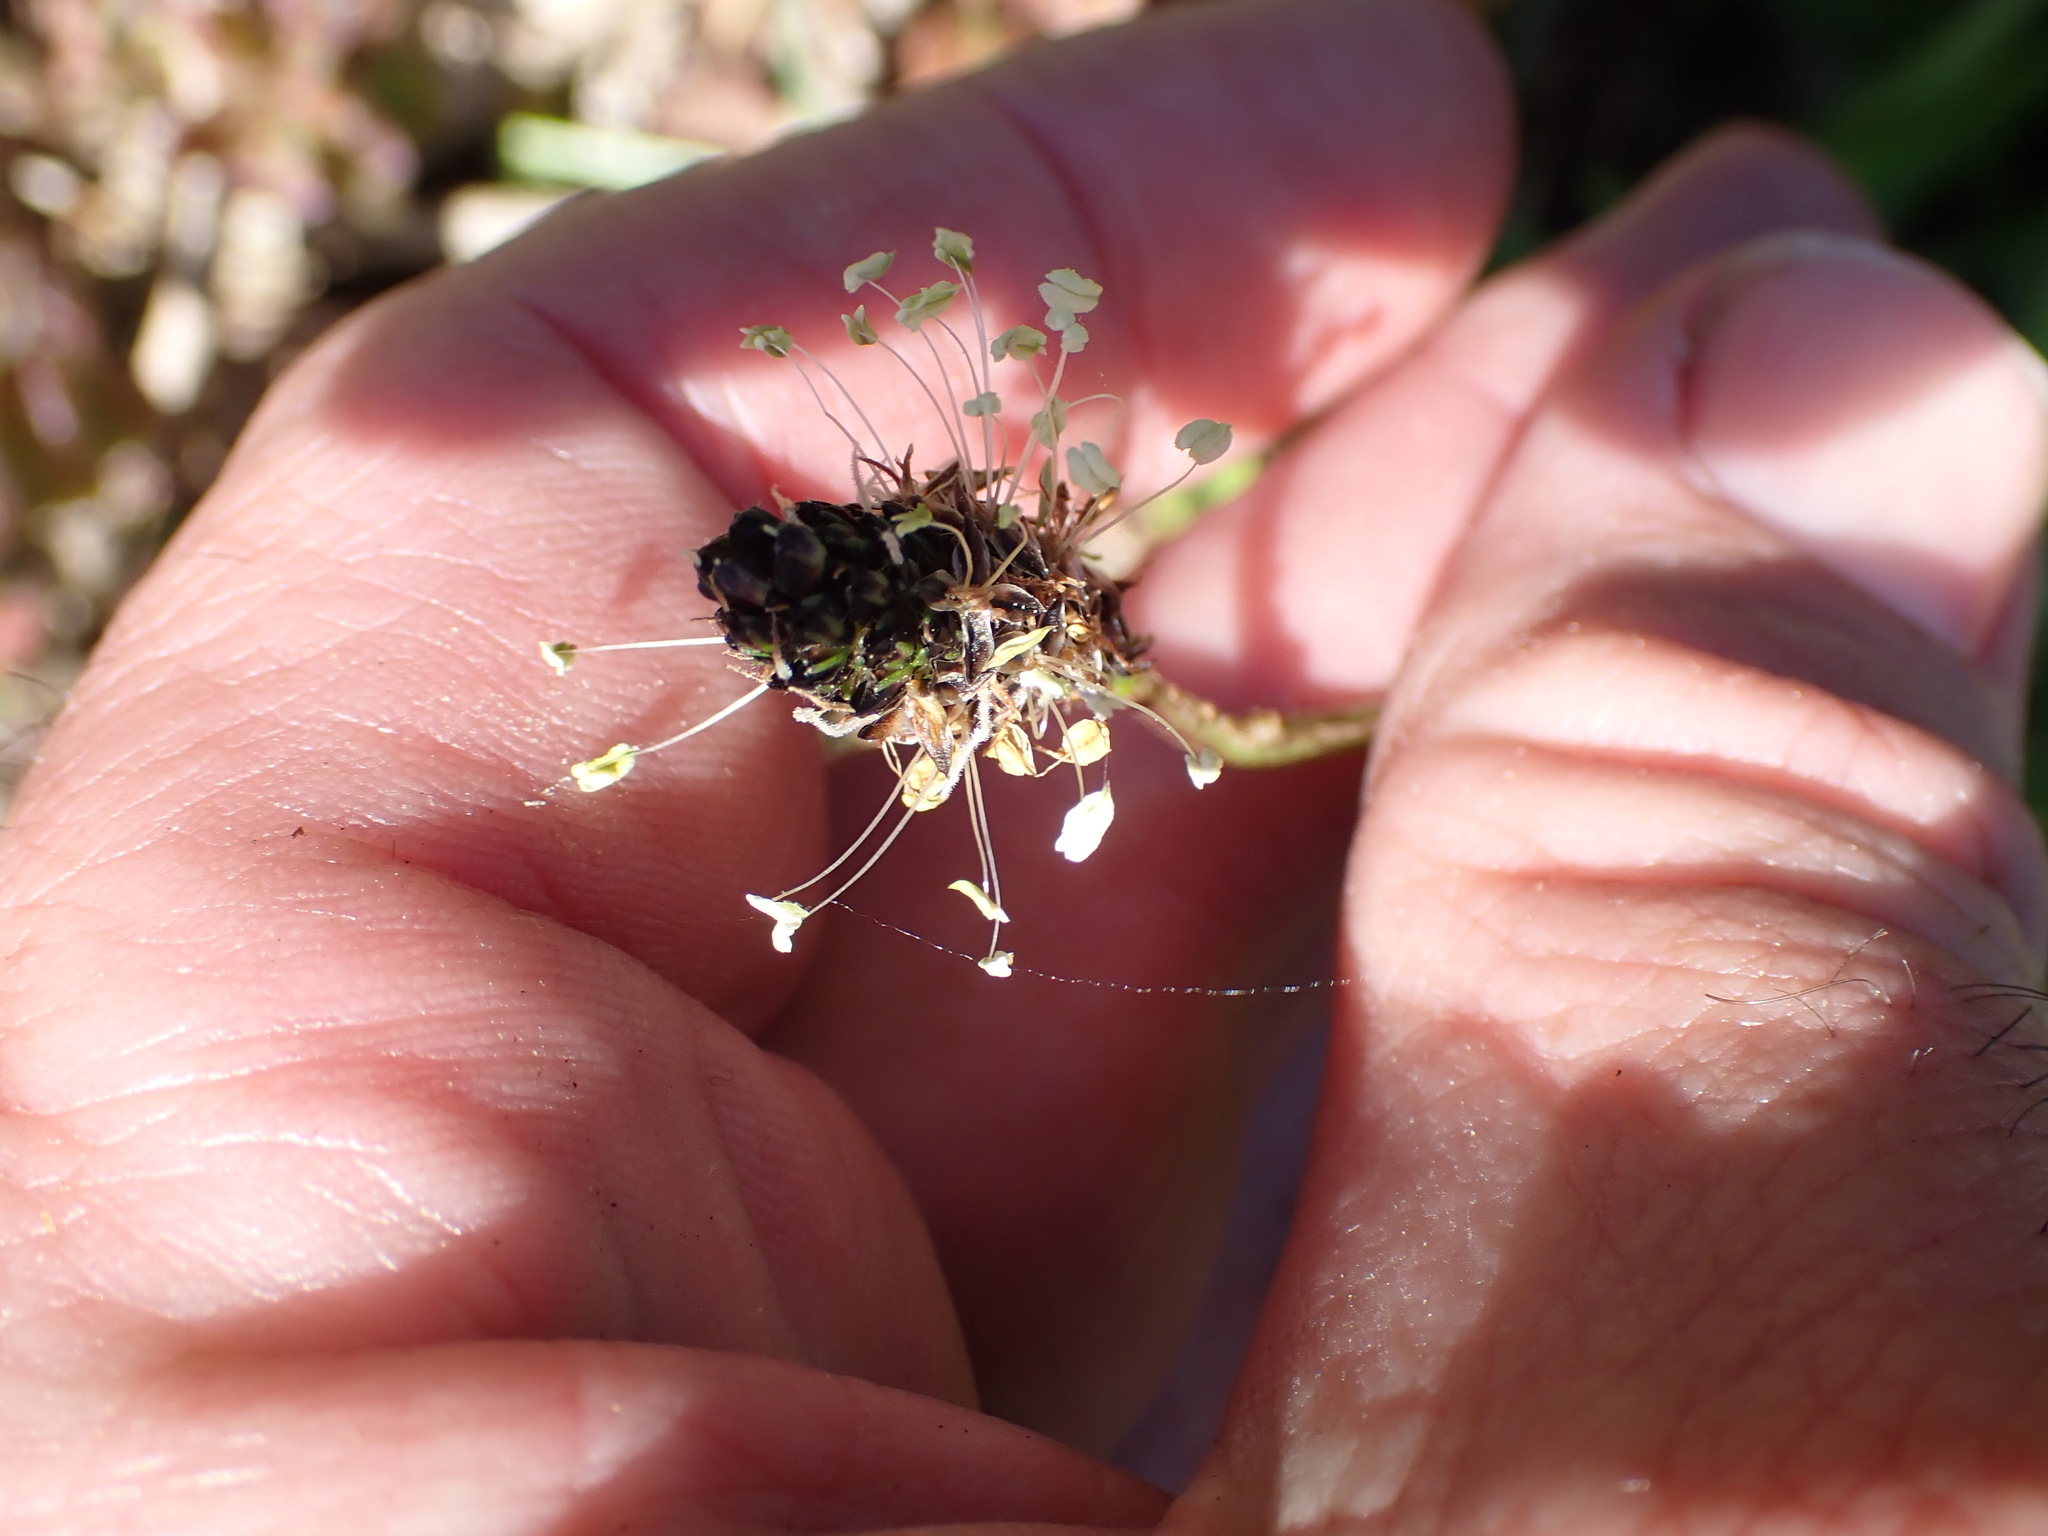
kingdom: Plantae
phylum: Tracheophyta
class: Magnoliopsida
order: Lamiales
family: Plantaginaceae
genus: Plantago
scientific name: Plantago lanceolata
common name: Ribwort plantain
